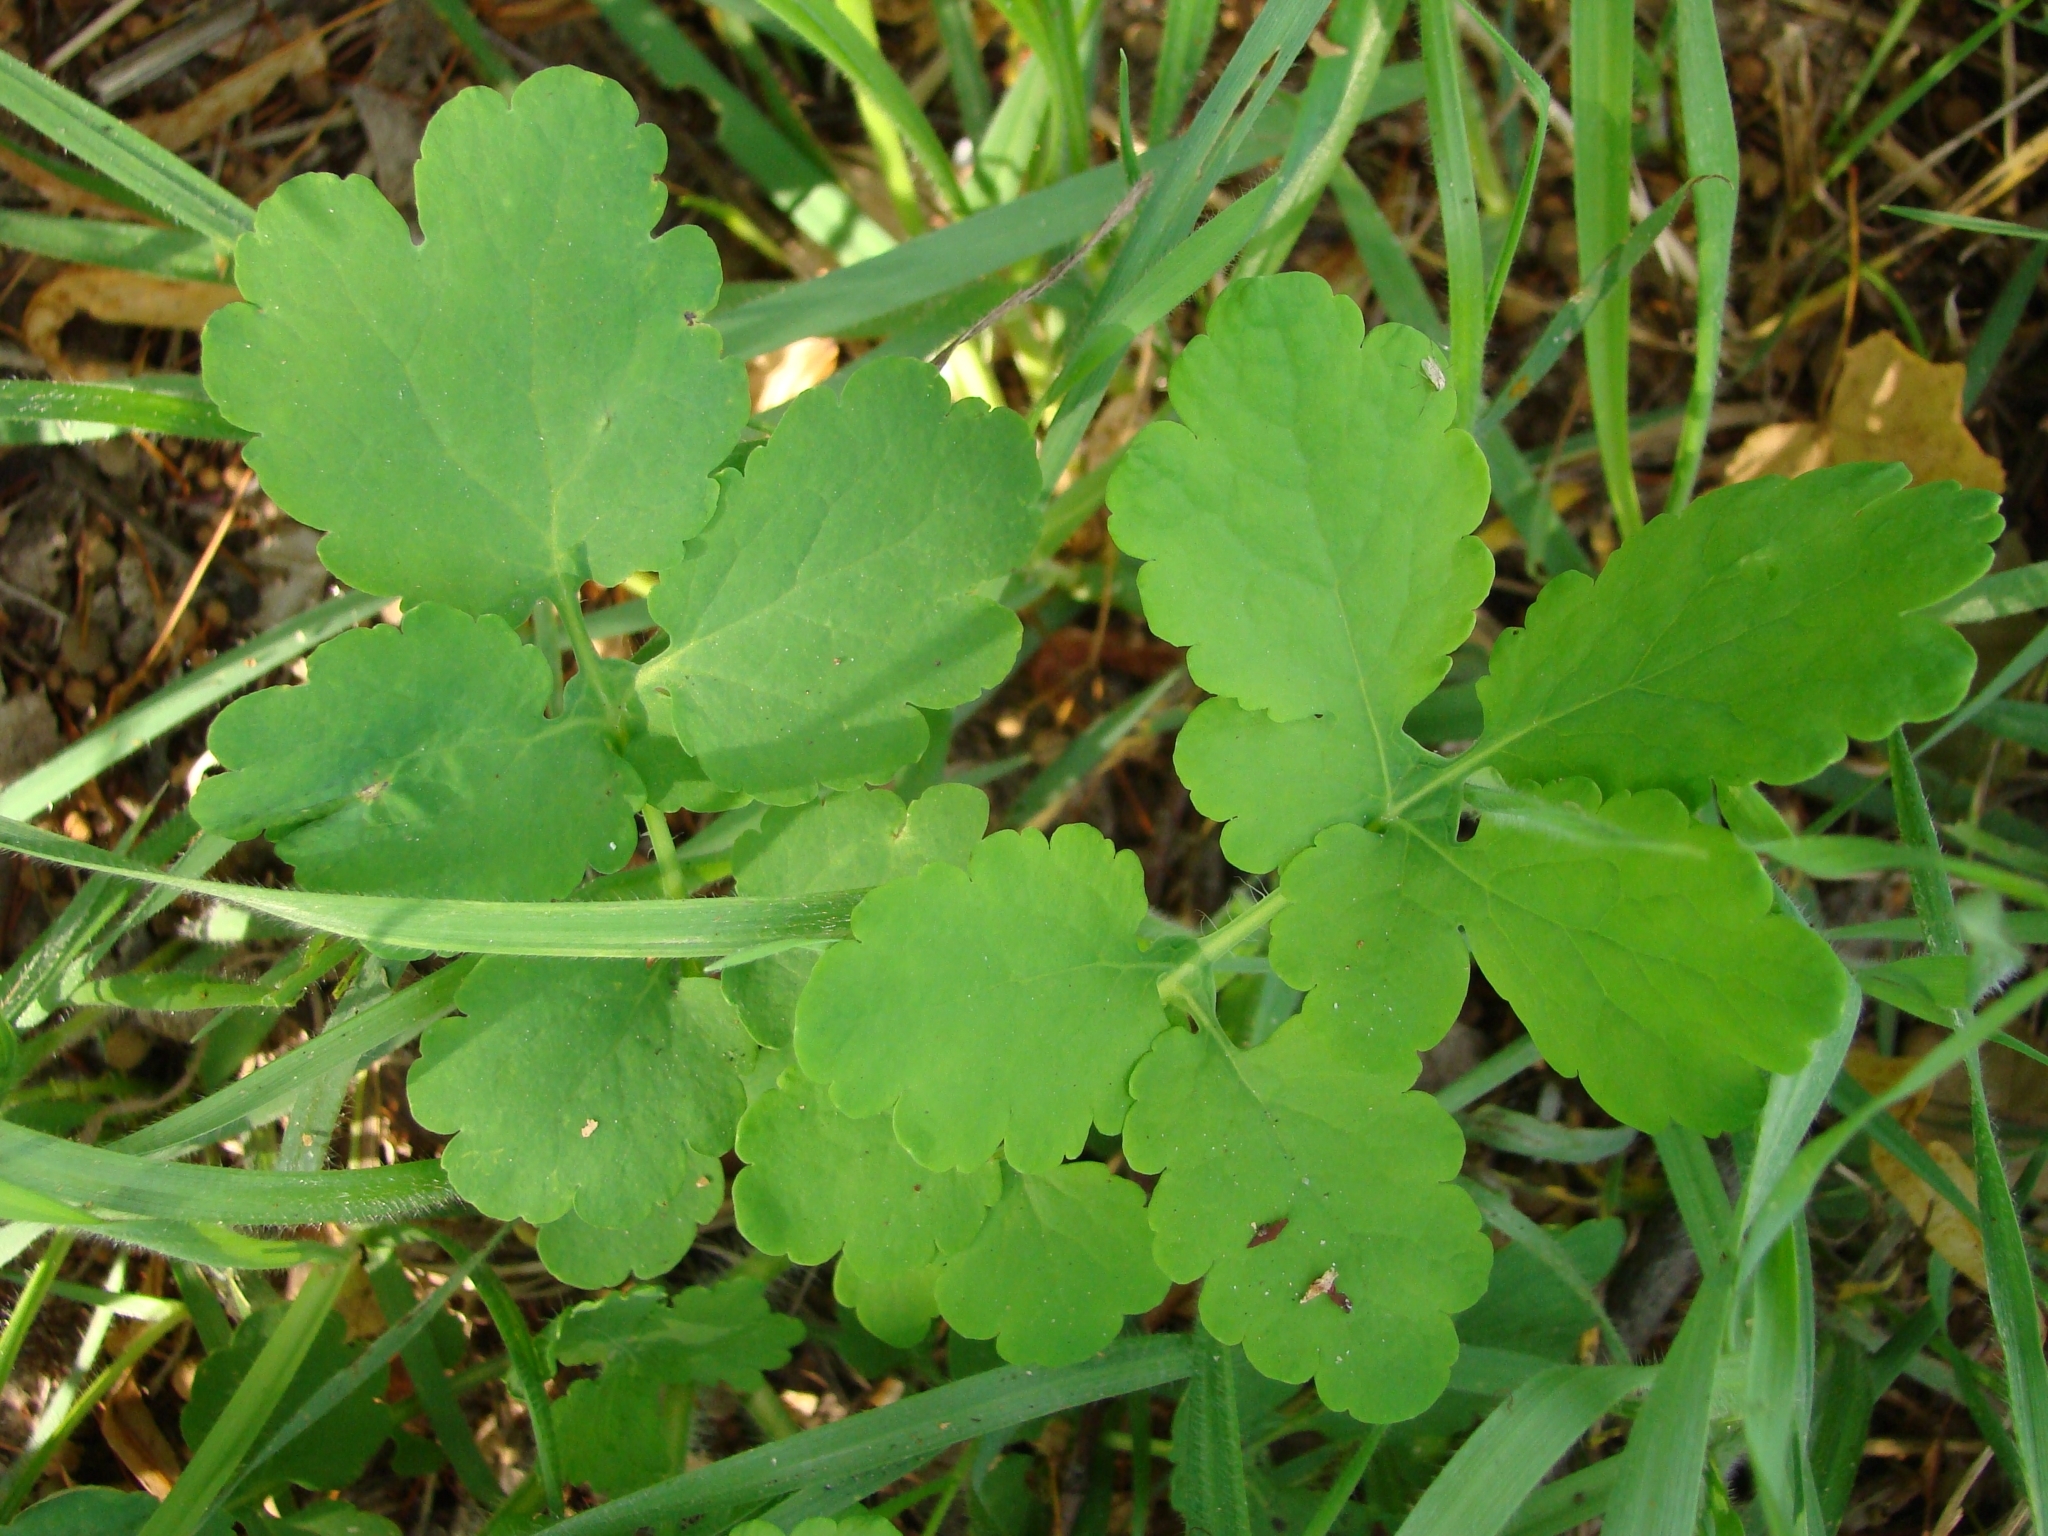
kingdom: Plantae
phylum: Tracheophyta
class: Magnoliopsida
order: Ranunculales
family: Papaveraceae
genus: Chelidonium
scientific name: Chelidonium majus
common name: Greater celandine
